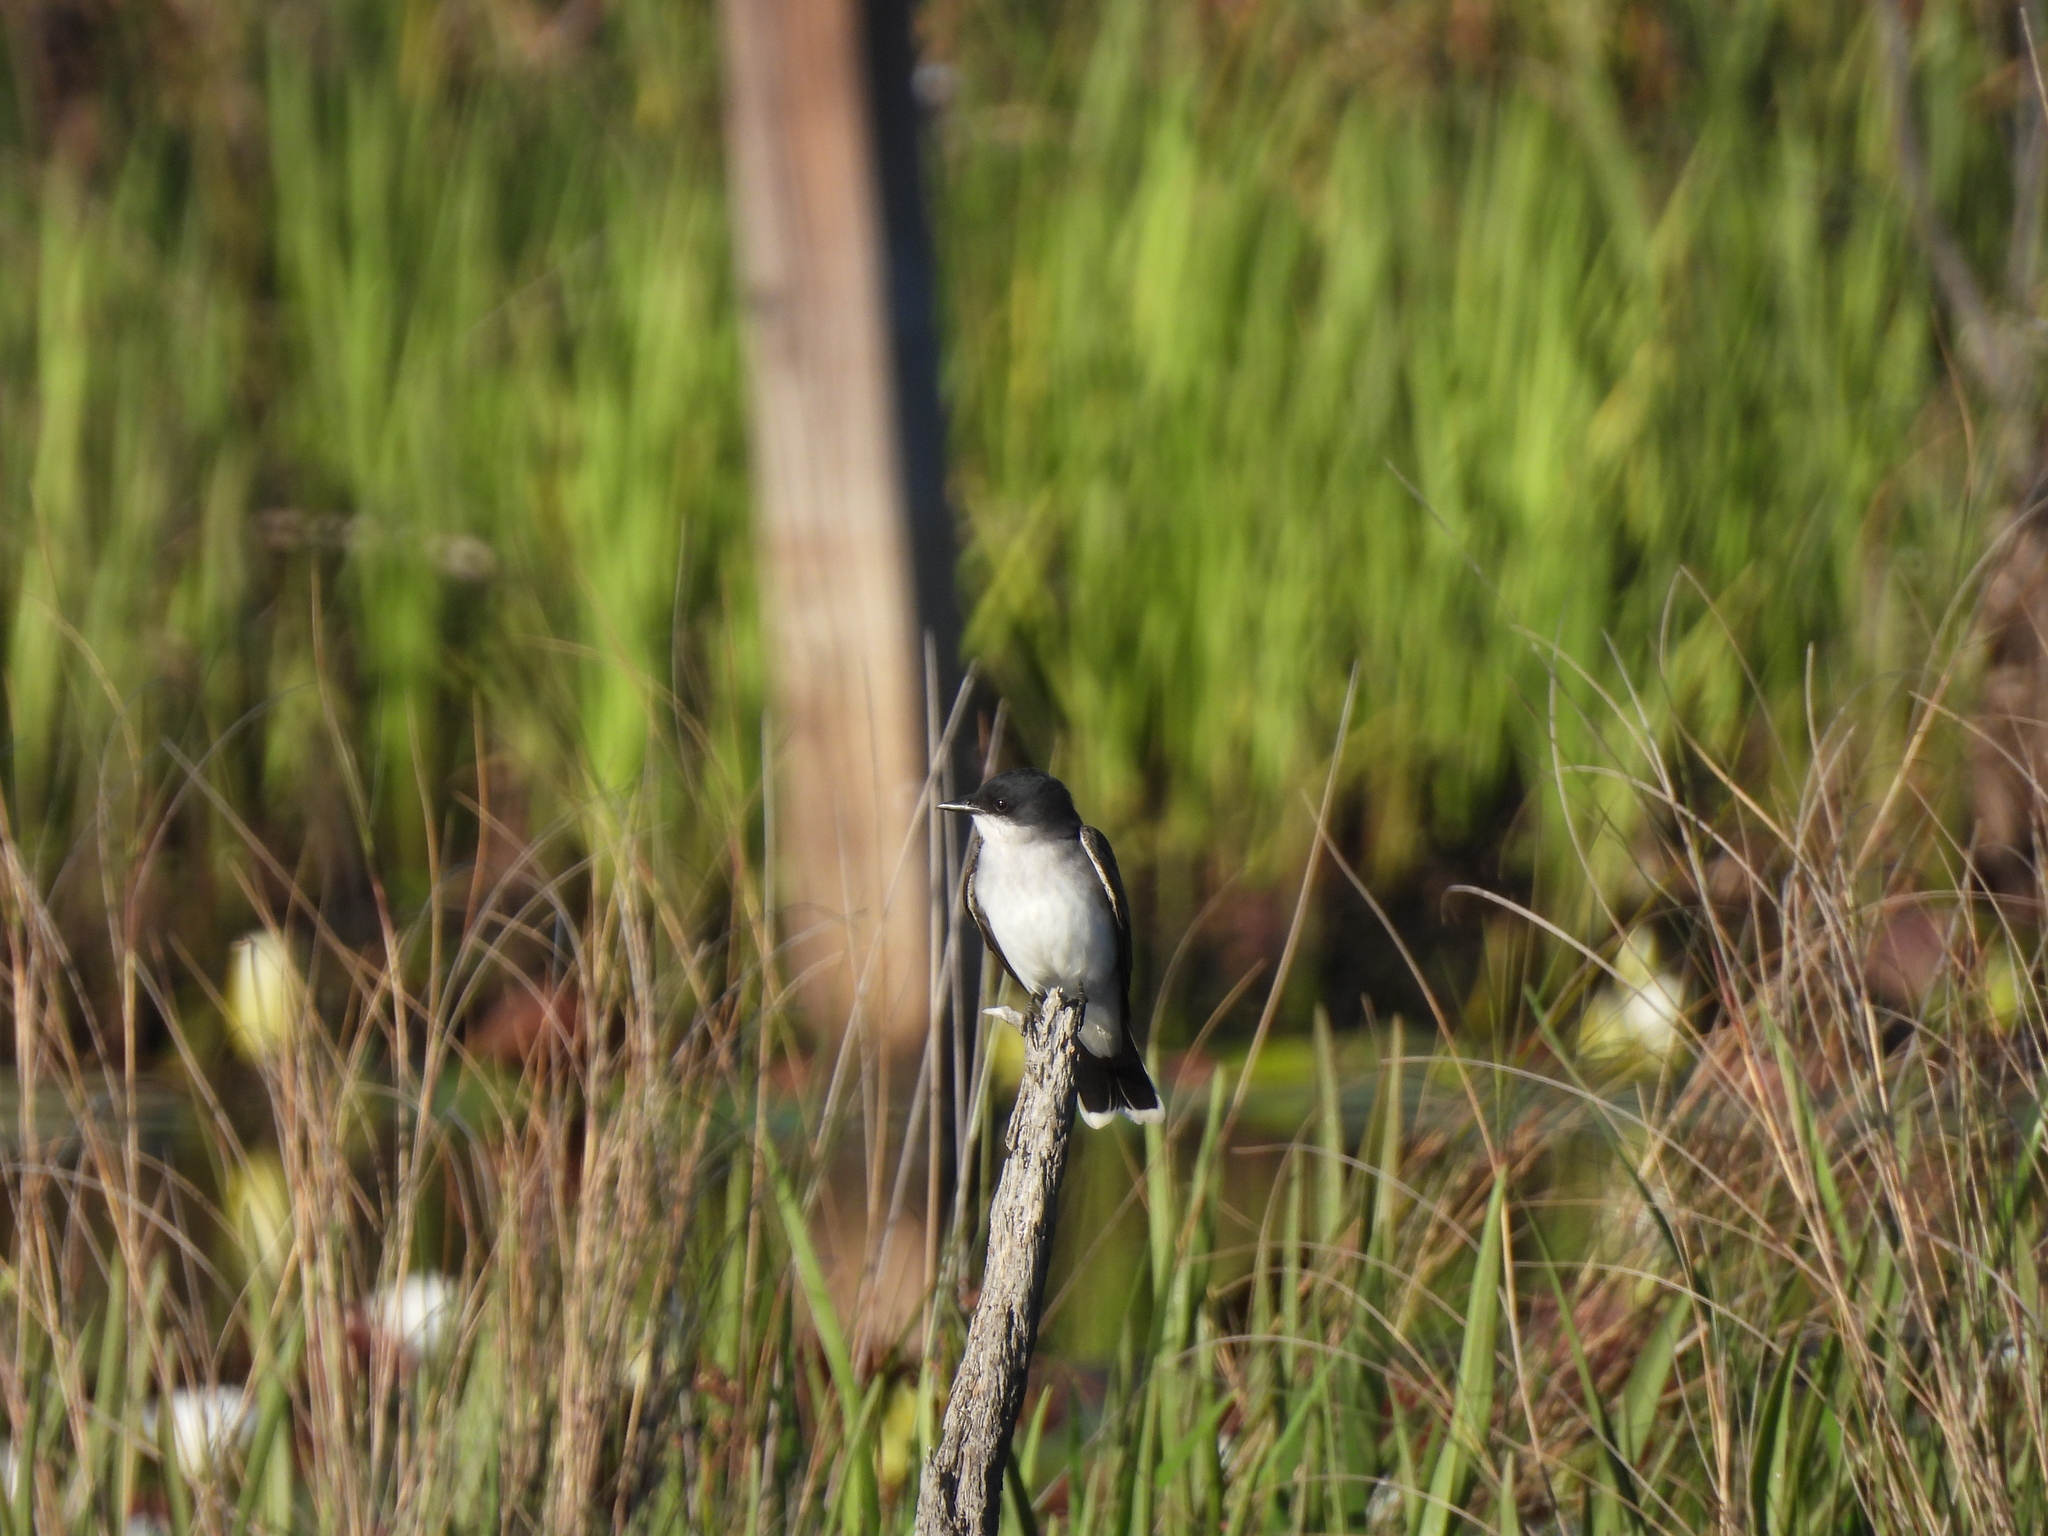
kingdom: Animalia
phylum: Chordata
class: Aves
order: Passeriformes
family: Tyrannidae
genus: Tyrannus
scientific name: Tyrannus tyrannus
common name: Eastern kingbird
